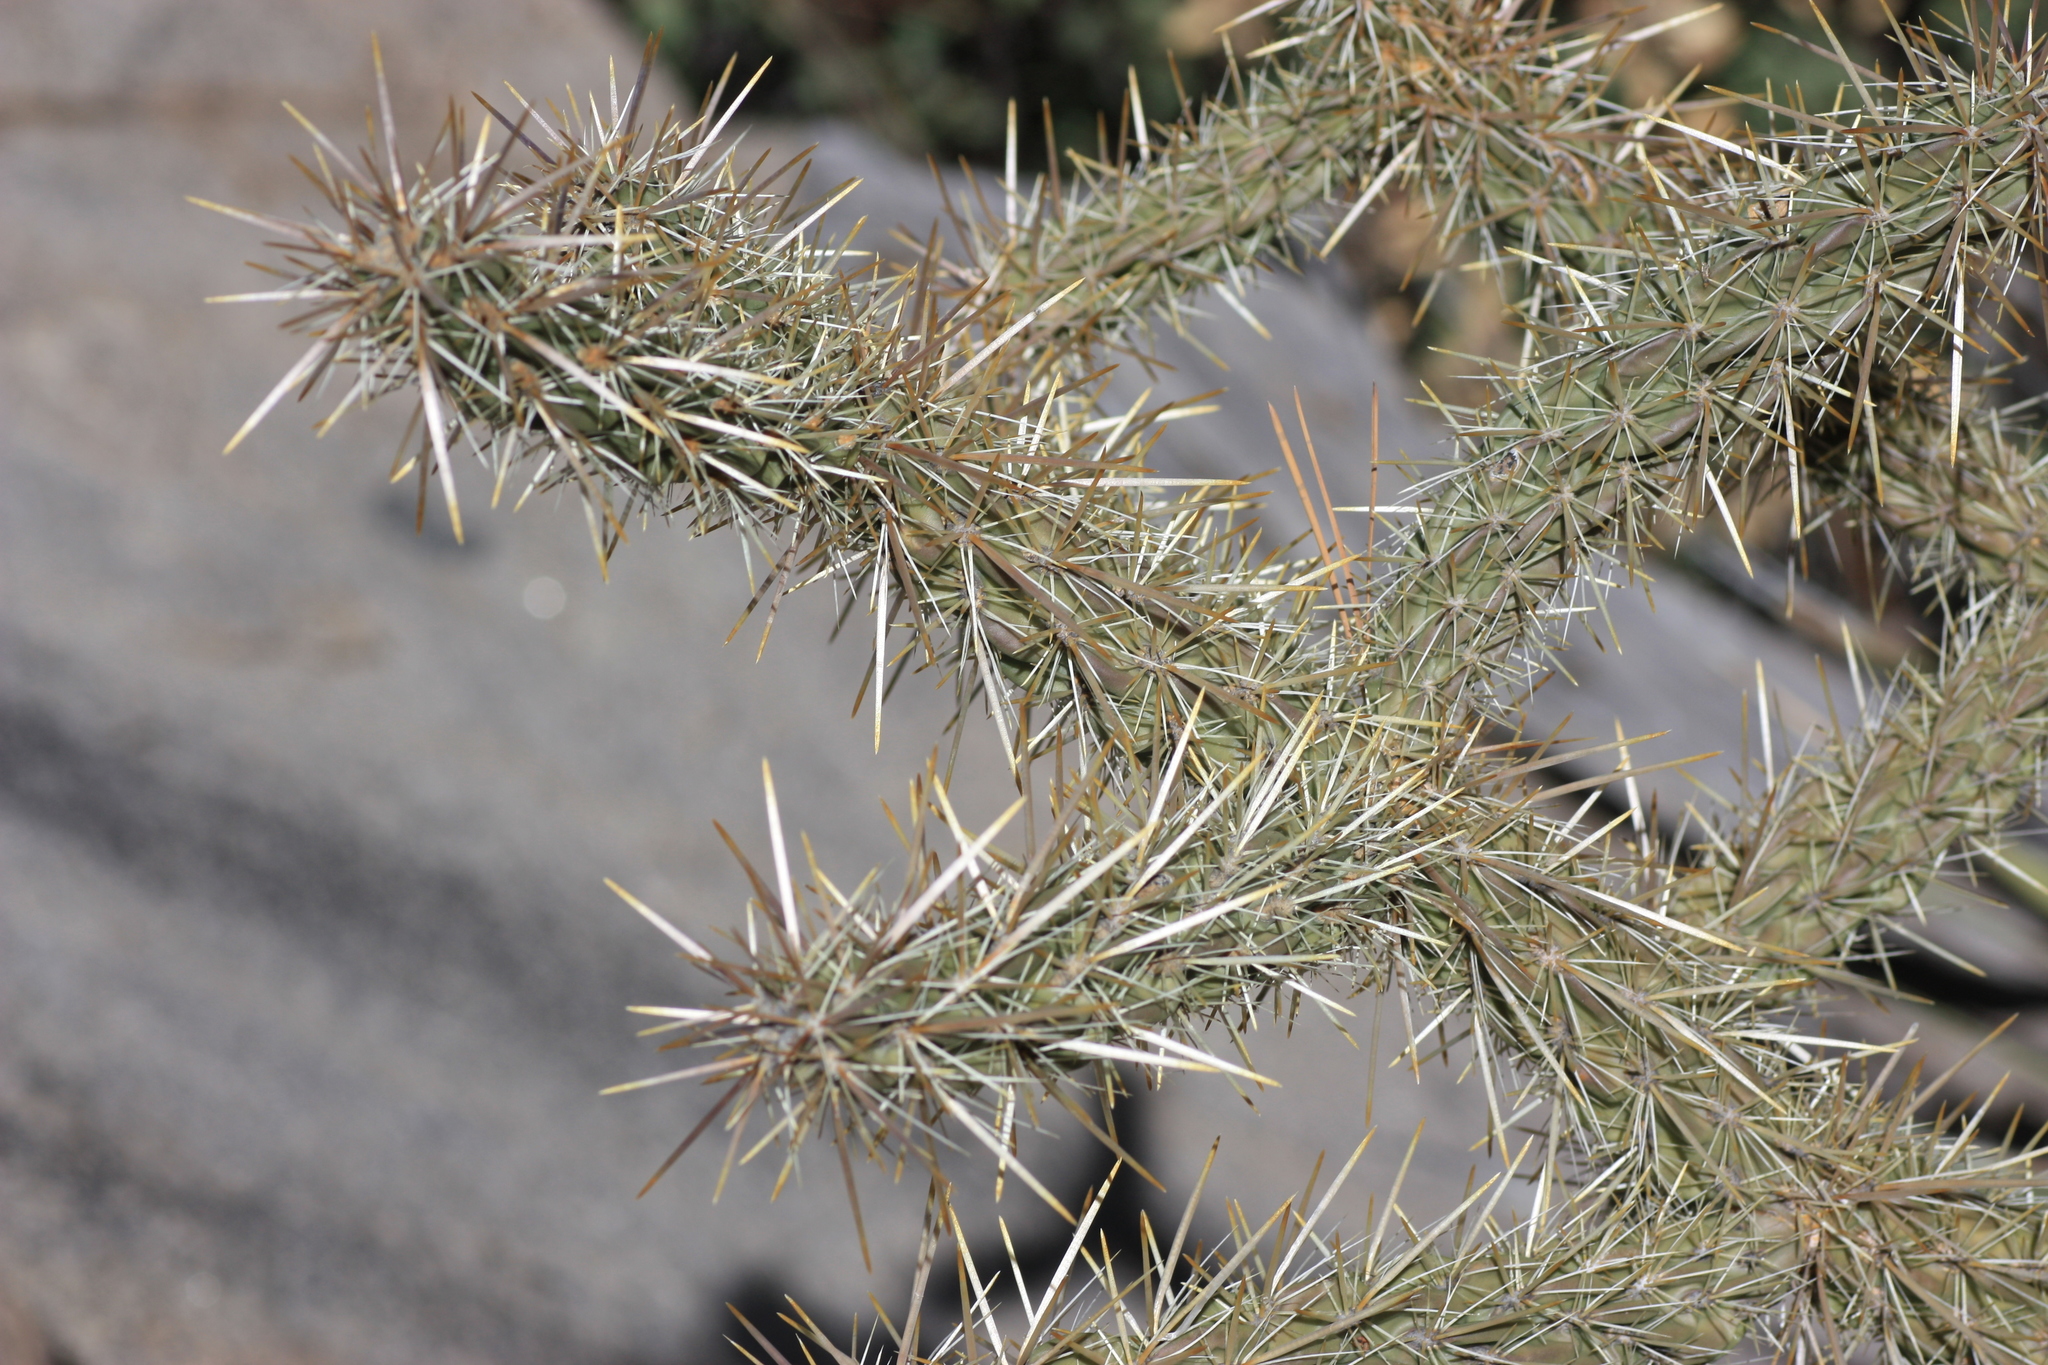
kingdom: Plantae
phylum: Tracheophyta
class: Magnoliopsida
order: Caryophyllales
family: Cactaceae
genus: Cylindropuntia
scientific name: Cylindropuntia imbricata
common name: Candelabrum cactus
